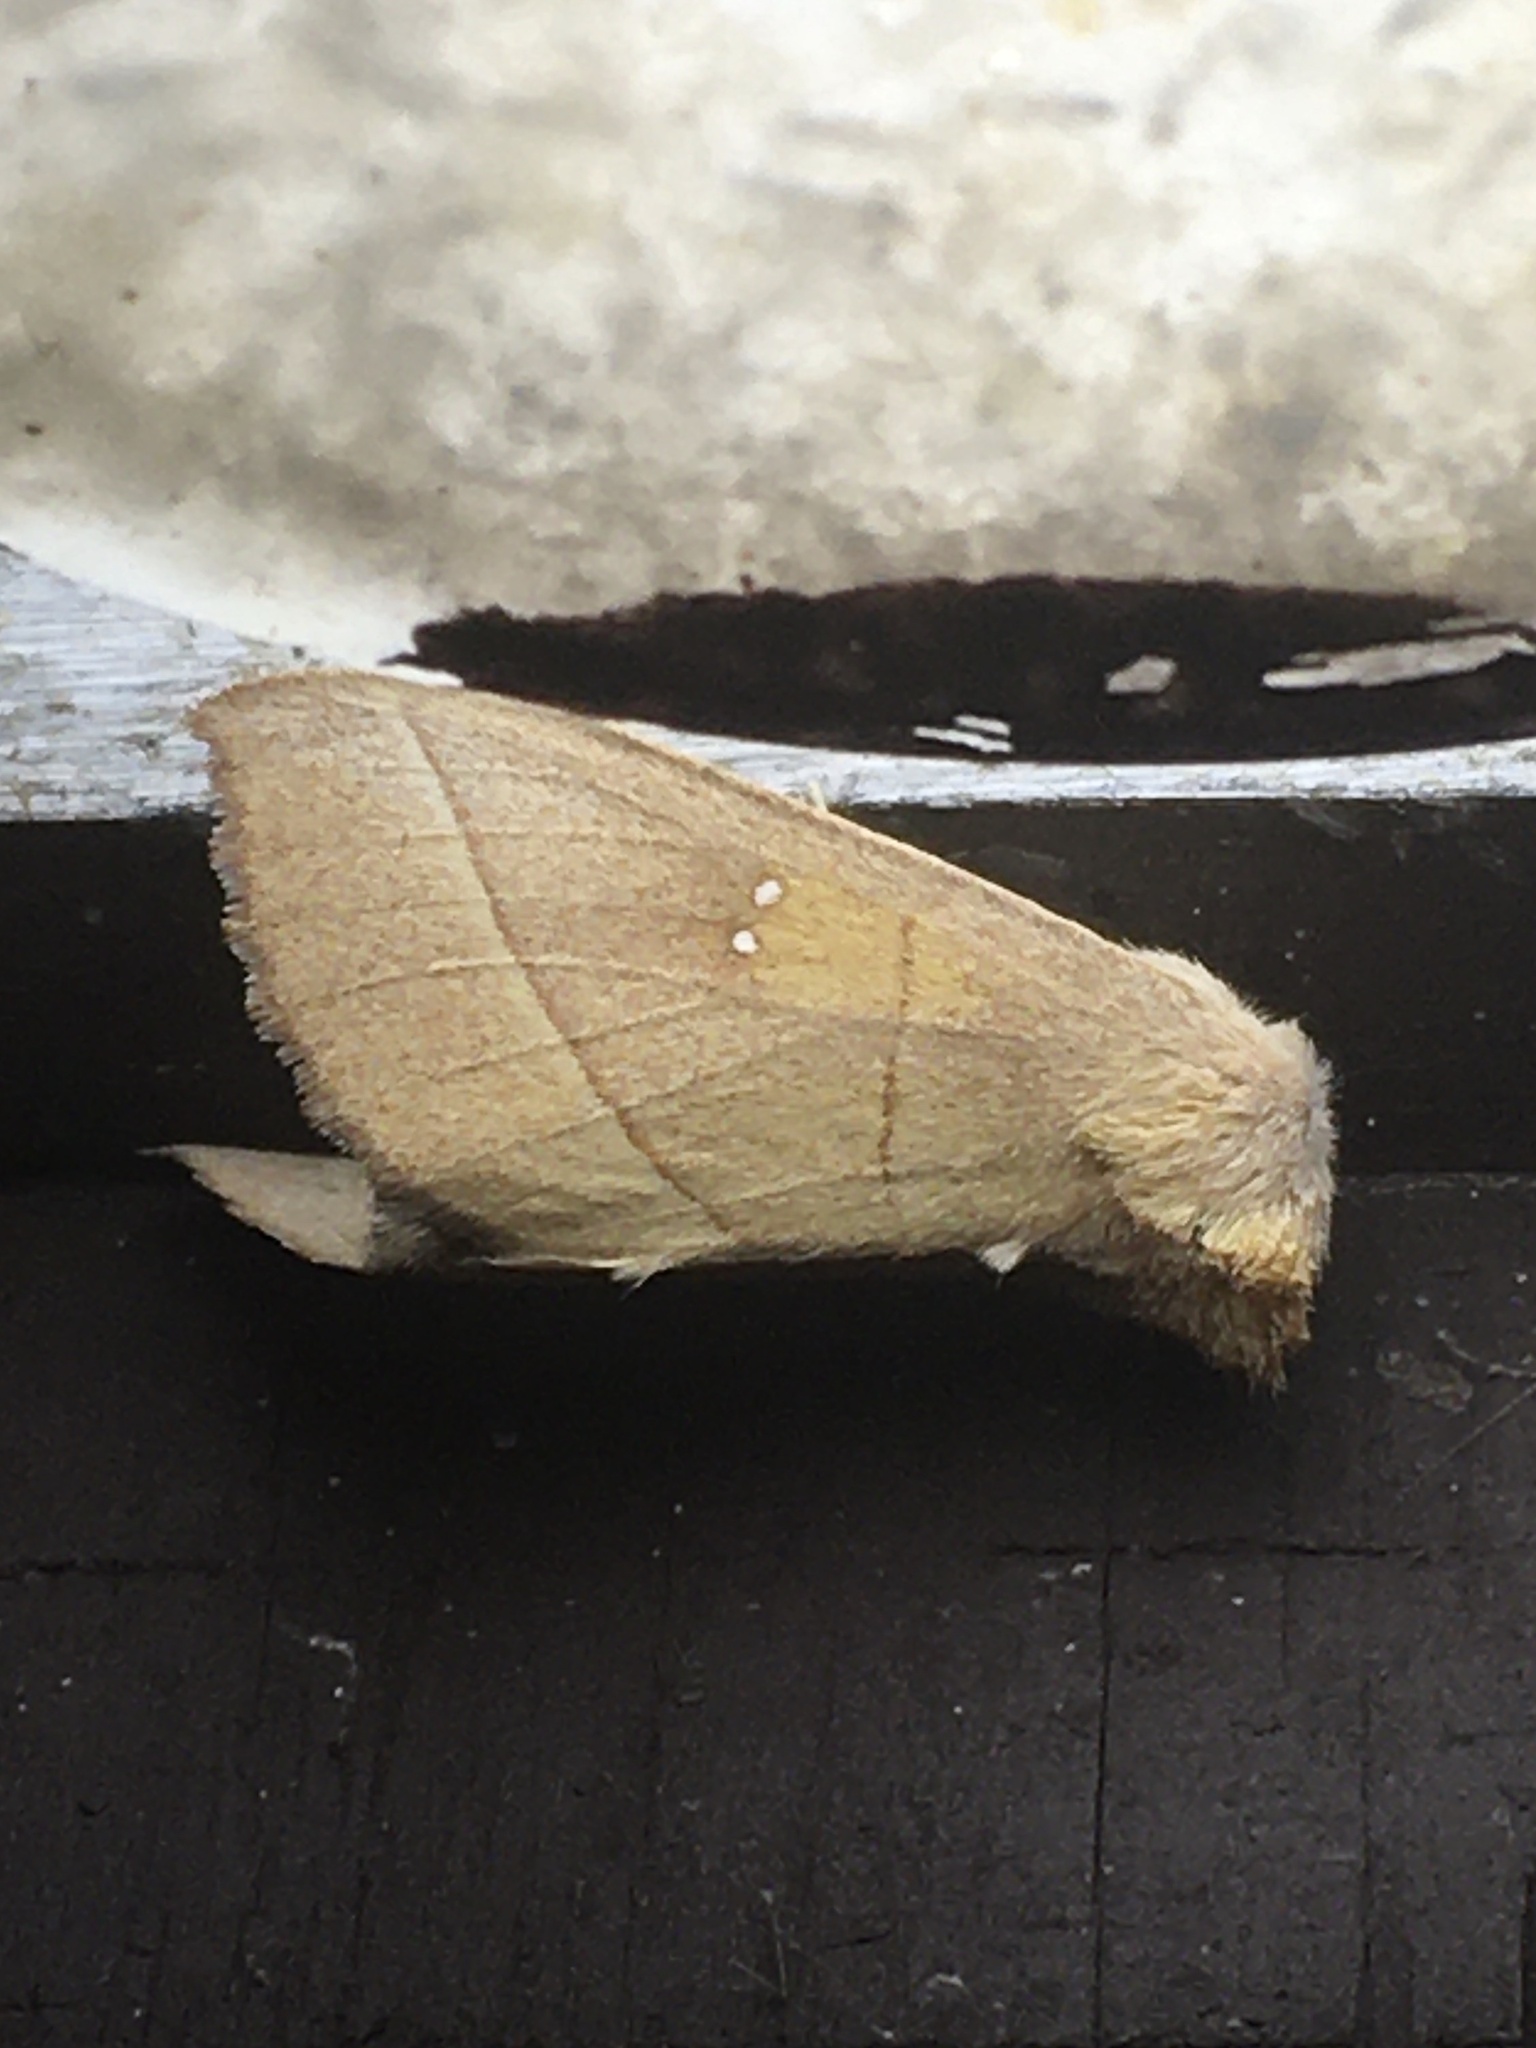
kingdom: Animalia
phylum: Arthropoda
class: Insecta
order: Lepidoptera
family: Notodontidae
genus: Nadata
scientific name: Nadata gibbosa
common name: White-dotted prominent
